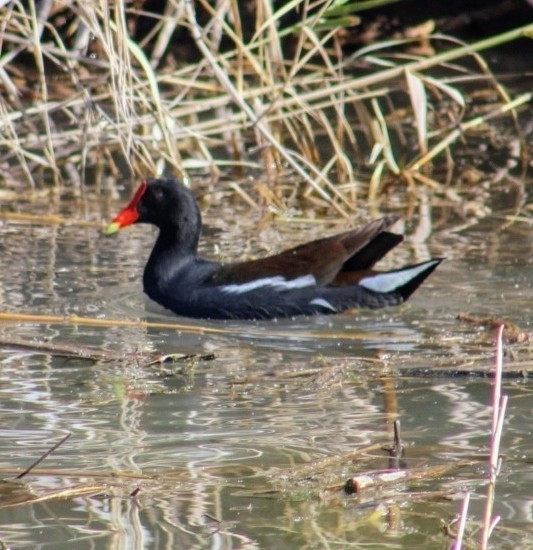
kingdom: Animalia
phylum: Chordata
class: Aves
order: Gruiformes
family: Rallidae
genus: Gallinula
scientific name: Gallinula chloropus
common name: Common moorhen
